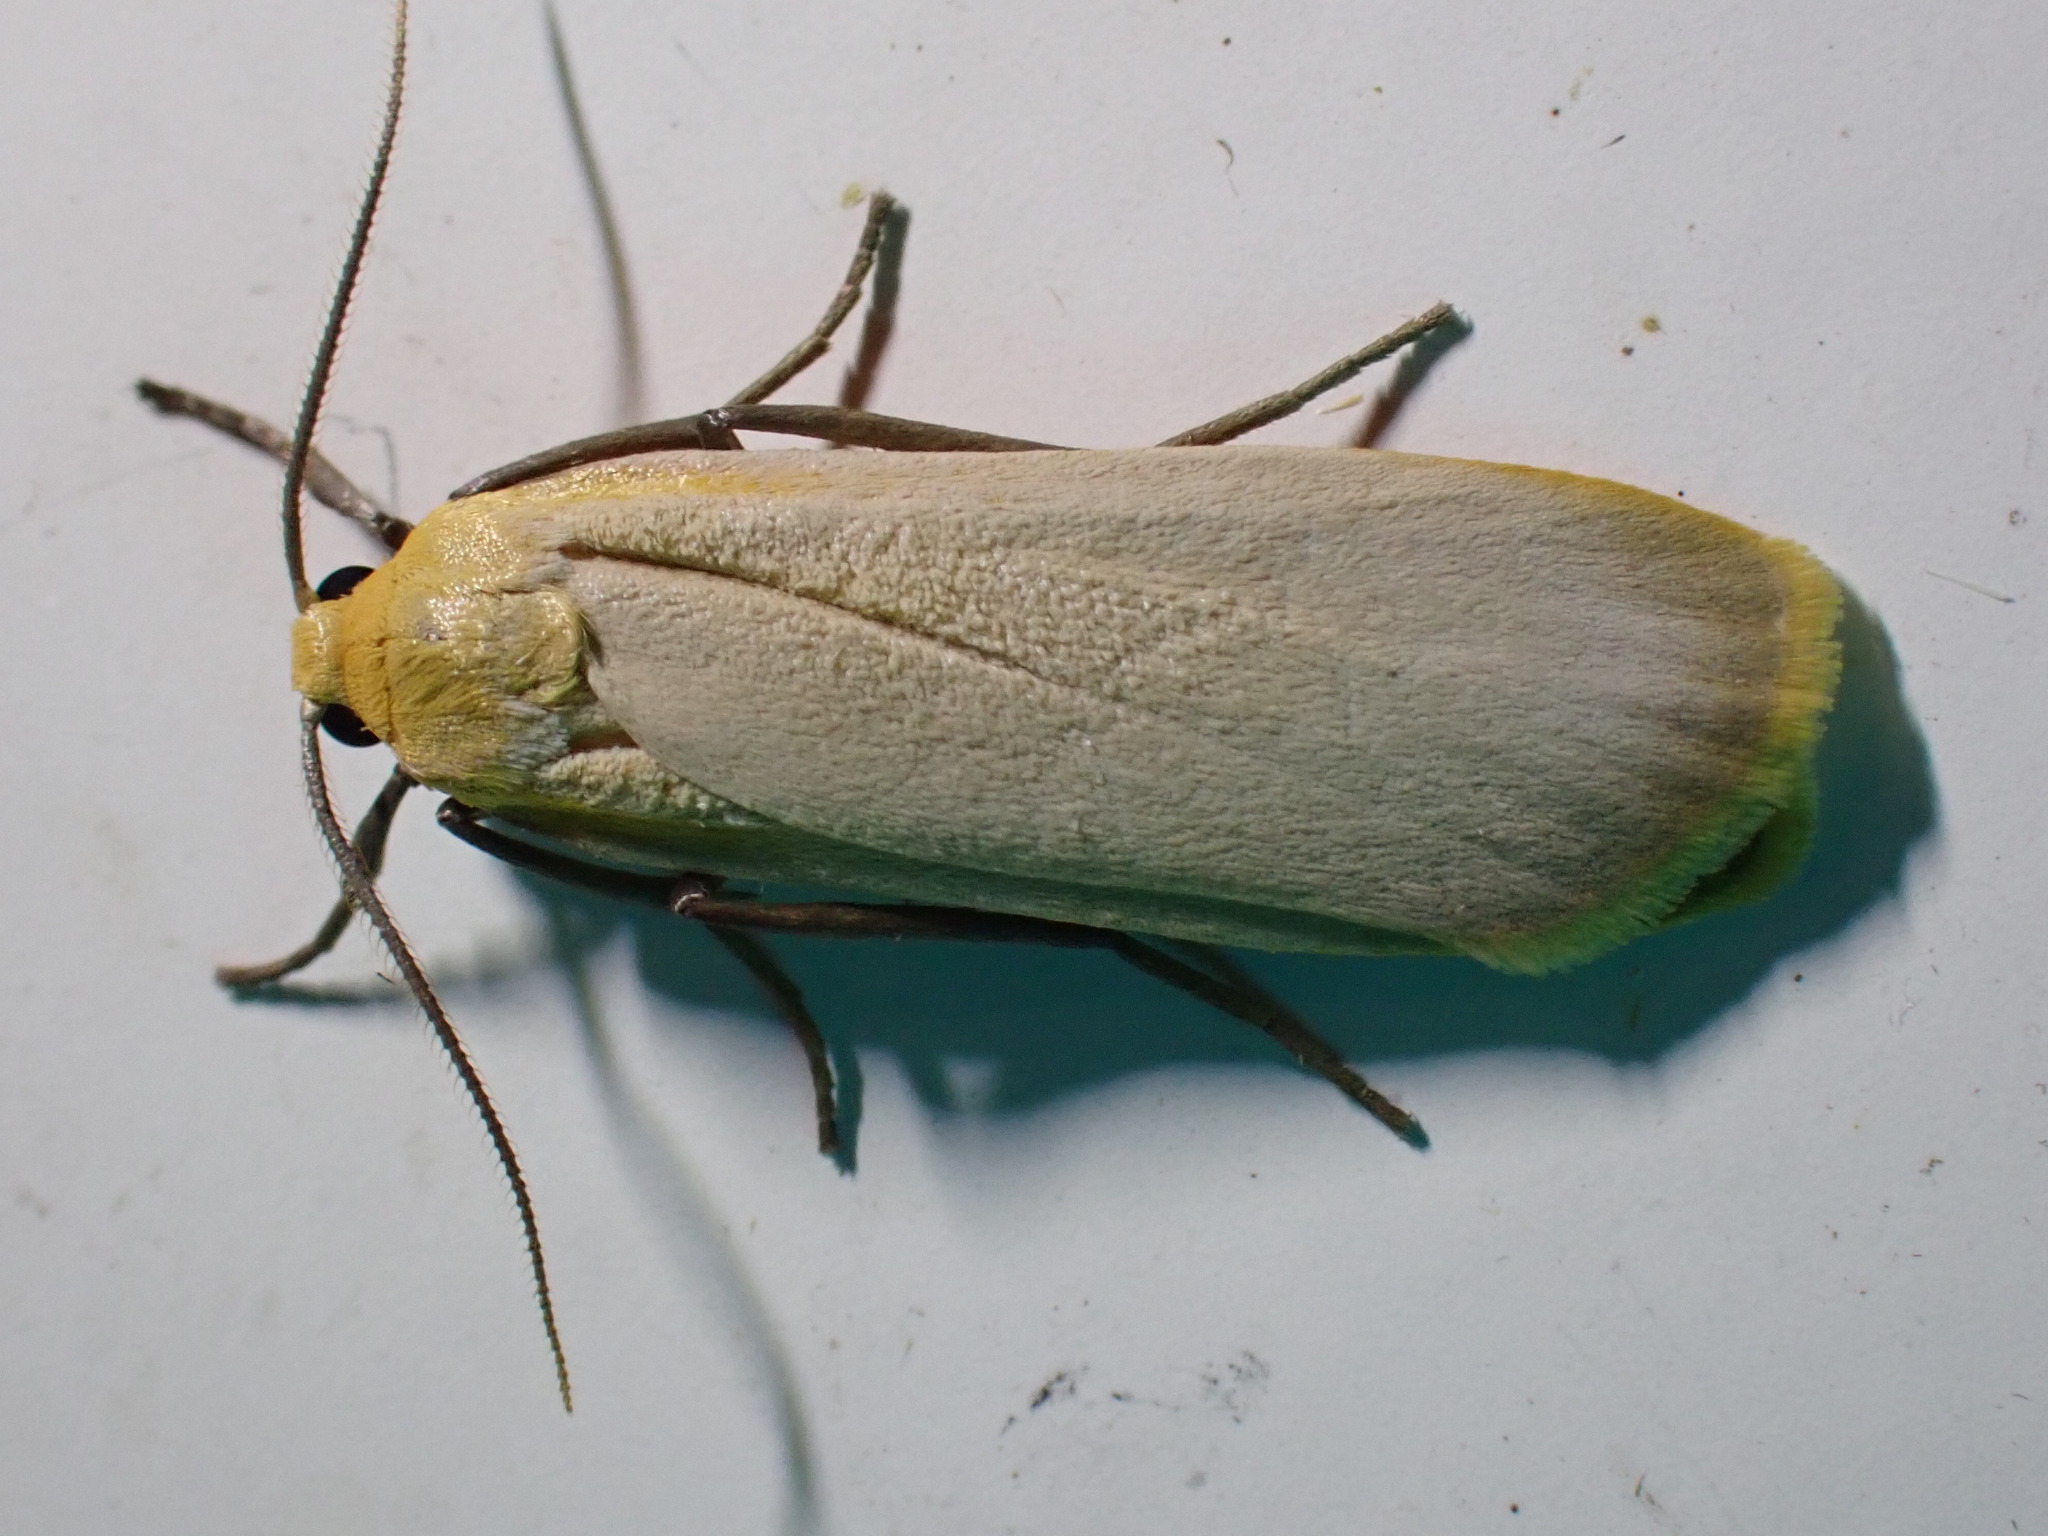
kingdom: Animalia
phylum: Arthropoda
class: Insecta
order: Lepidoptera
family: Erebidae
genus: Katha
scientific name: Katha depressa
